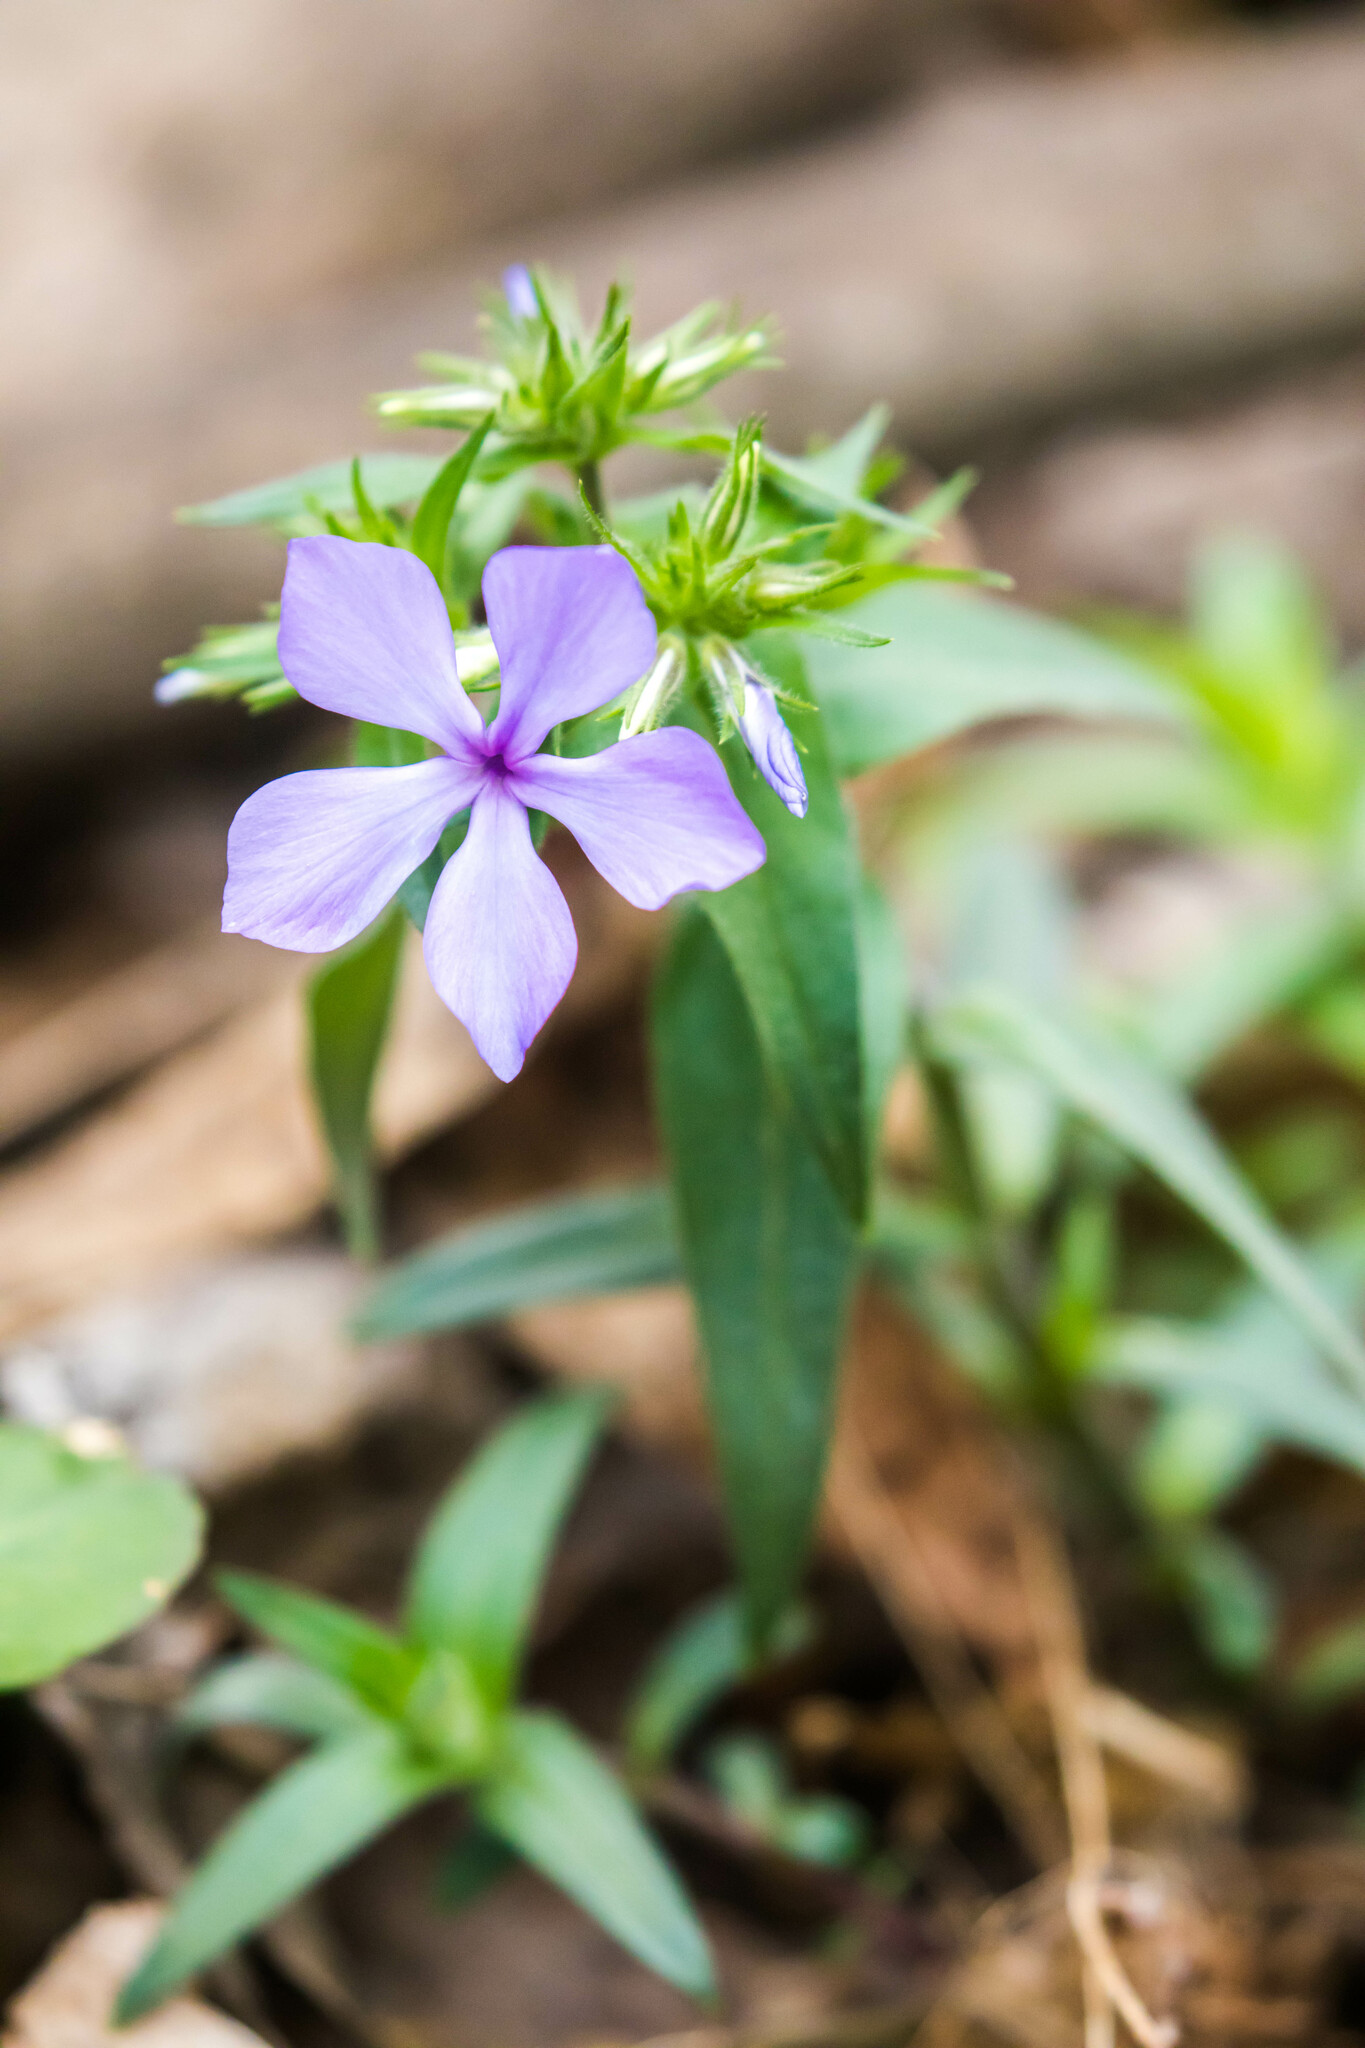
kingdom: Plantae
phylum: Tracheophyta
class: Magnoliopsida
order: Ericales
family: Polemoniaceae
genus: Phlox
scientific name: Phlox divaricata
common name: Blue phlox
